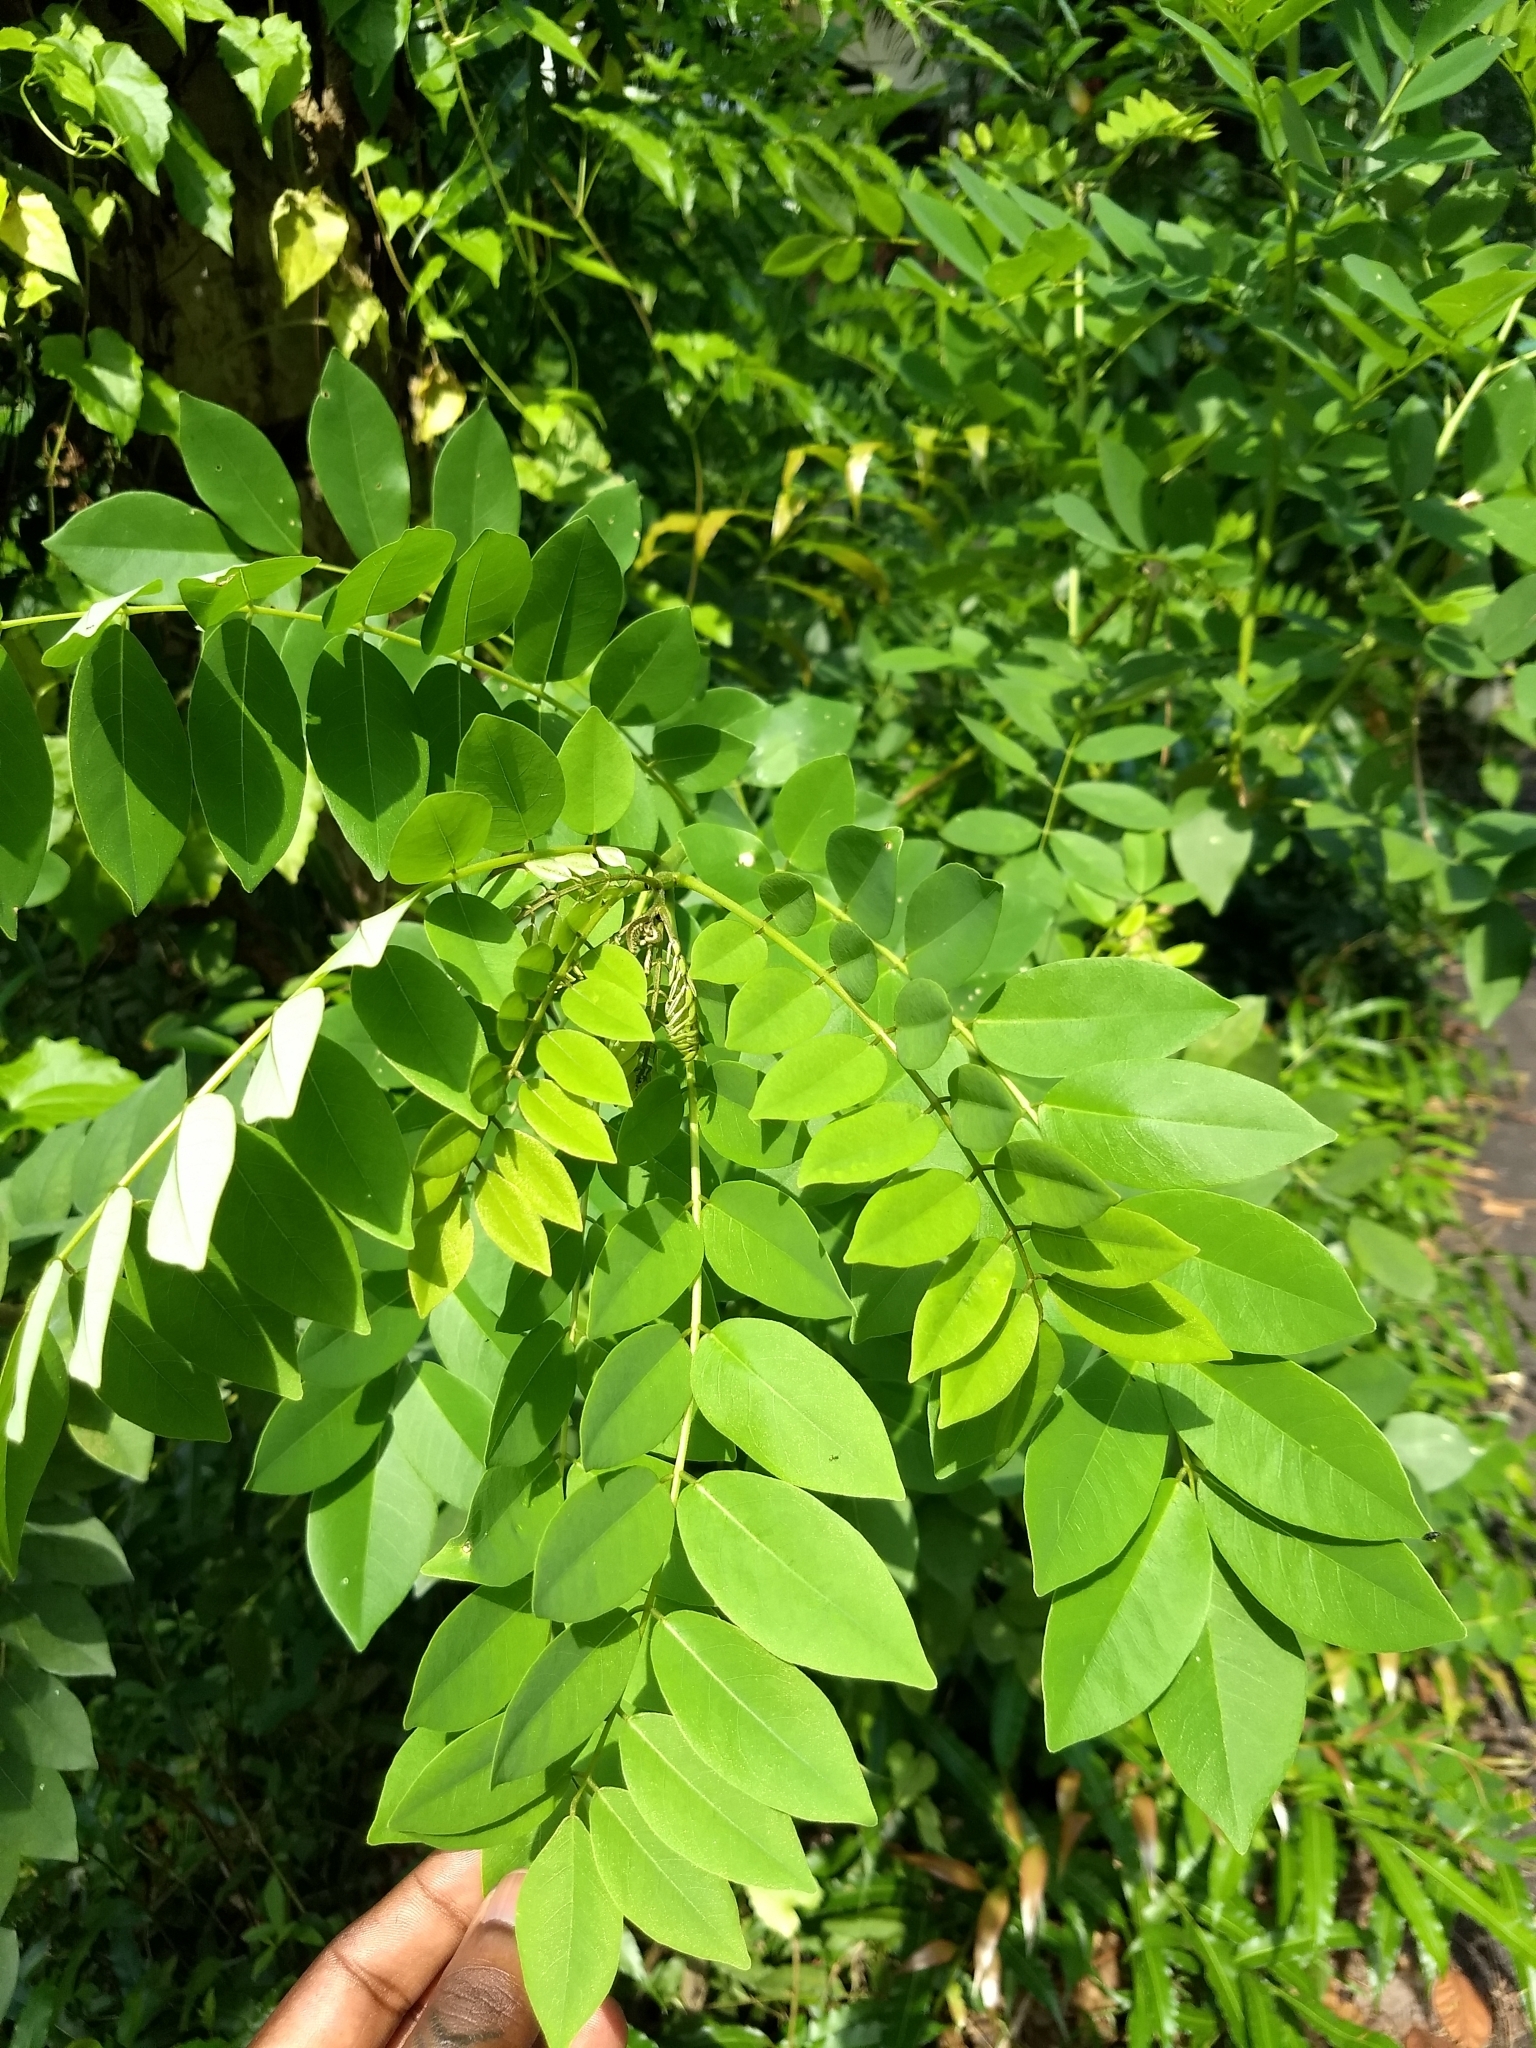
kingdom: Plantae
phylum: Tracheophyta
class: Magnoliopsida
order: Fabales
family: Fabaceae
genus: Gliricidia
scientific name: Gliricidia sepium
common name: Quickstick
